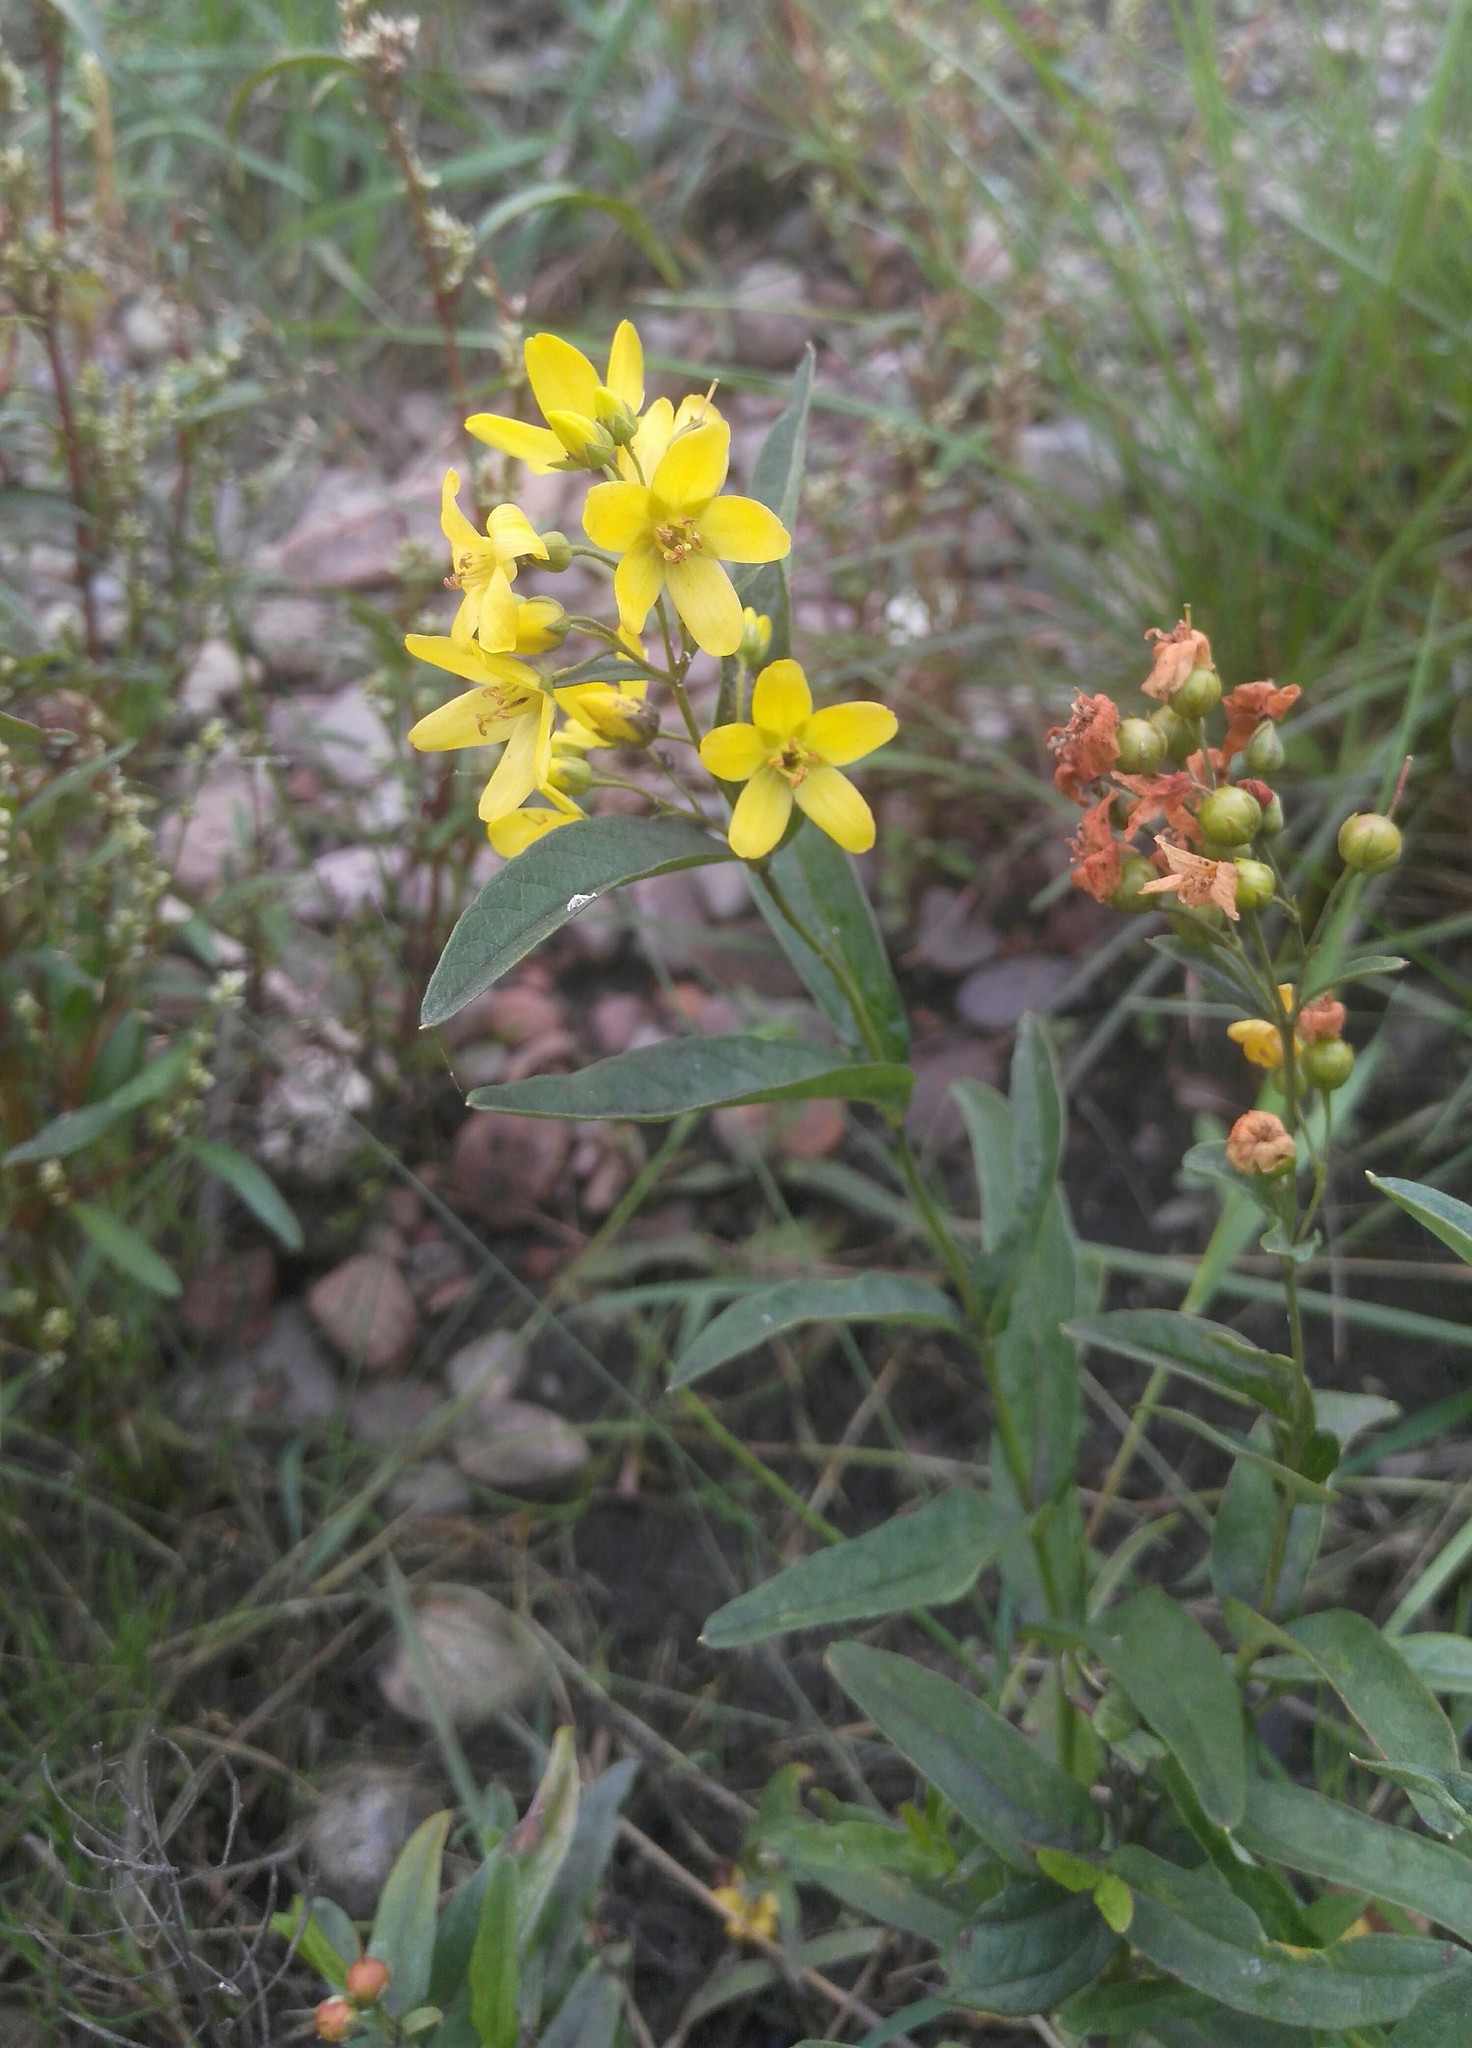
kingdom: Plantae
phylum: Tracheophyta
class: Magnoliopsida
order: Ericales
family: Primulaceae
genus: Lysimachia
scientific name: Lysimachia davurica
